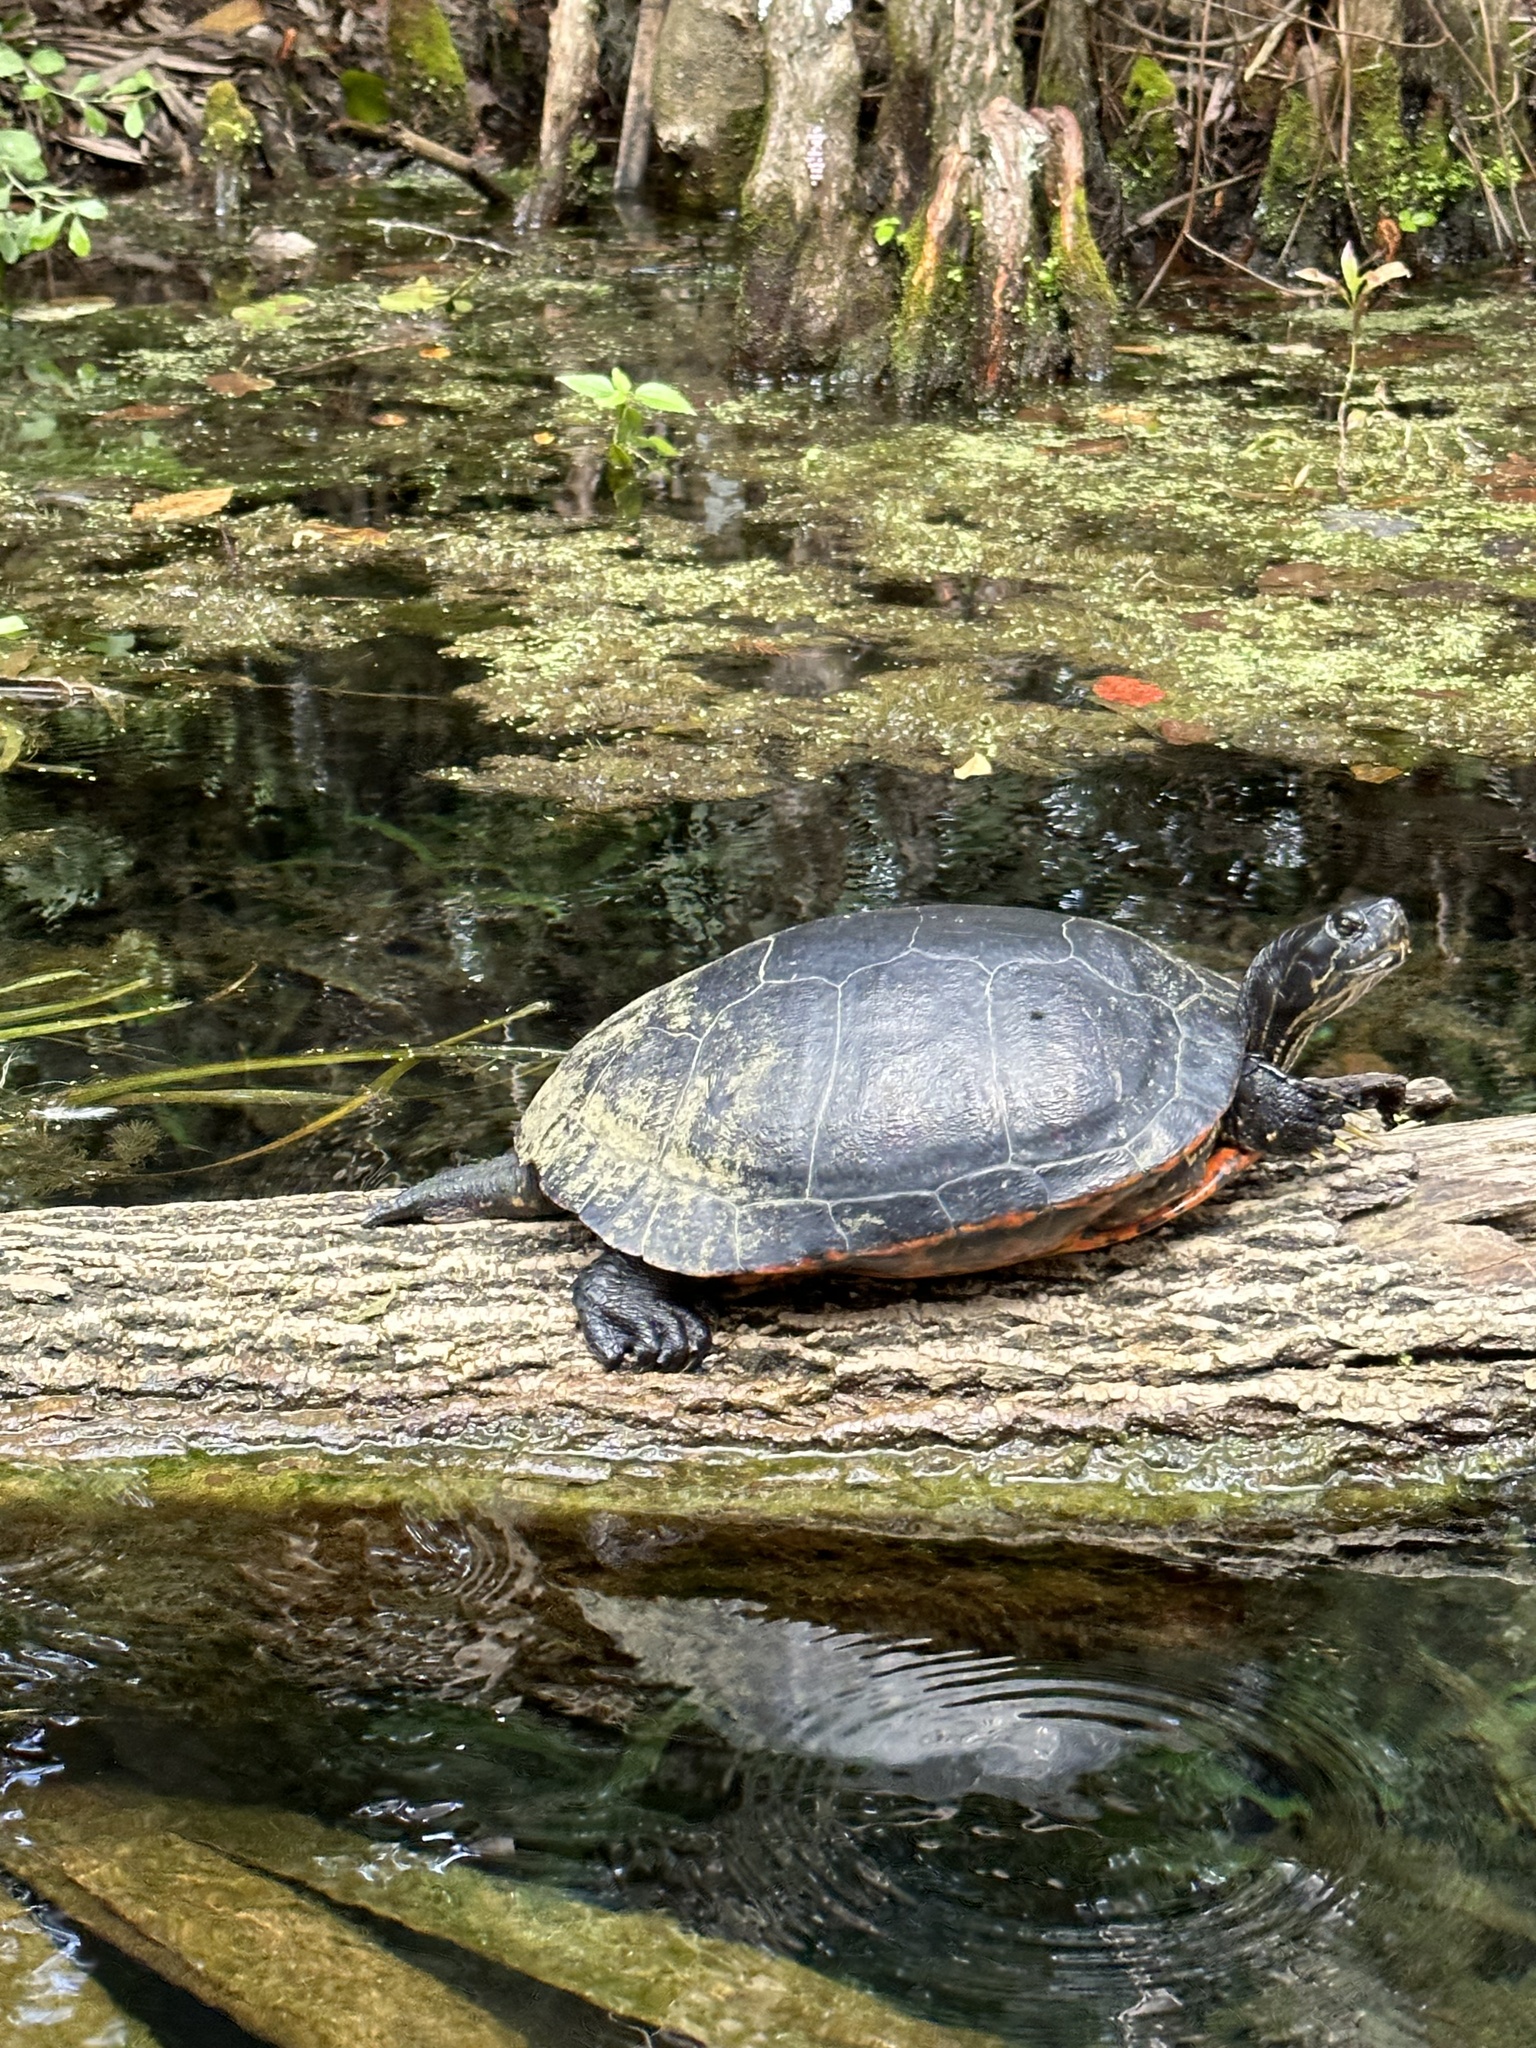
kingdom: Animalia
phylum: Chordata
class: Testudines
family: Emydidae
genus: Pseudemys
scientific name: Pseudemys nelsoni
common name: Florida red-bellied turtle
